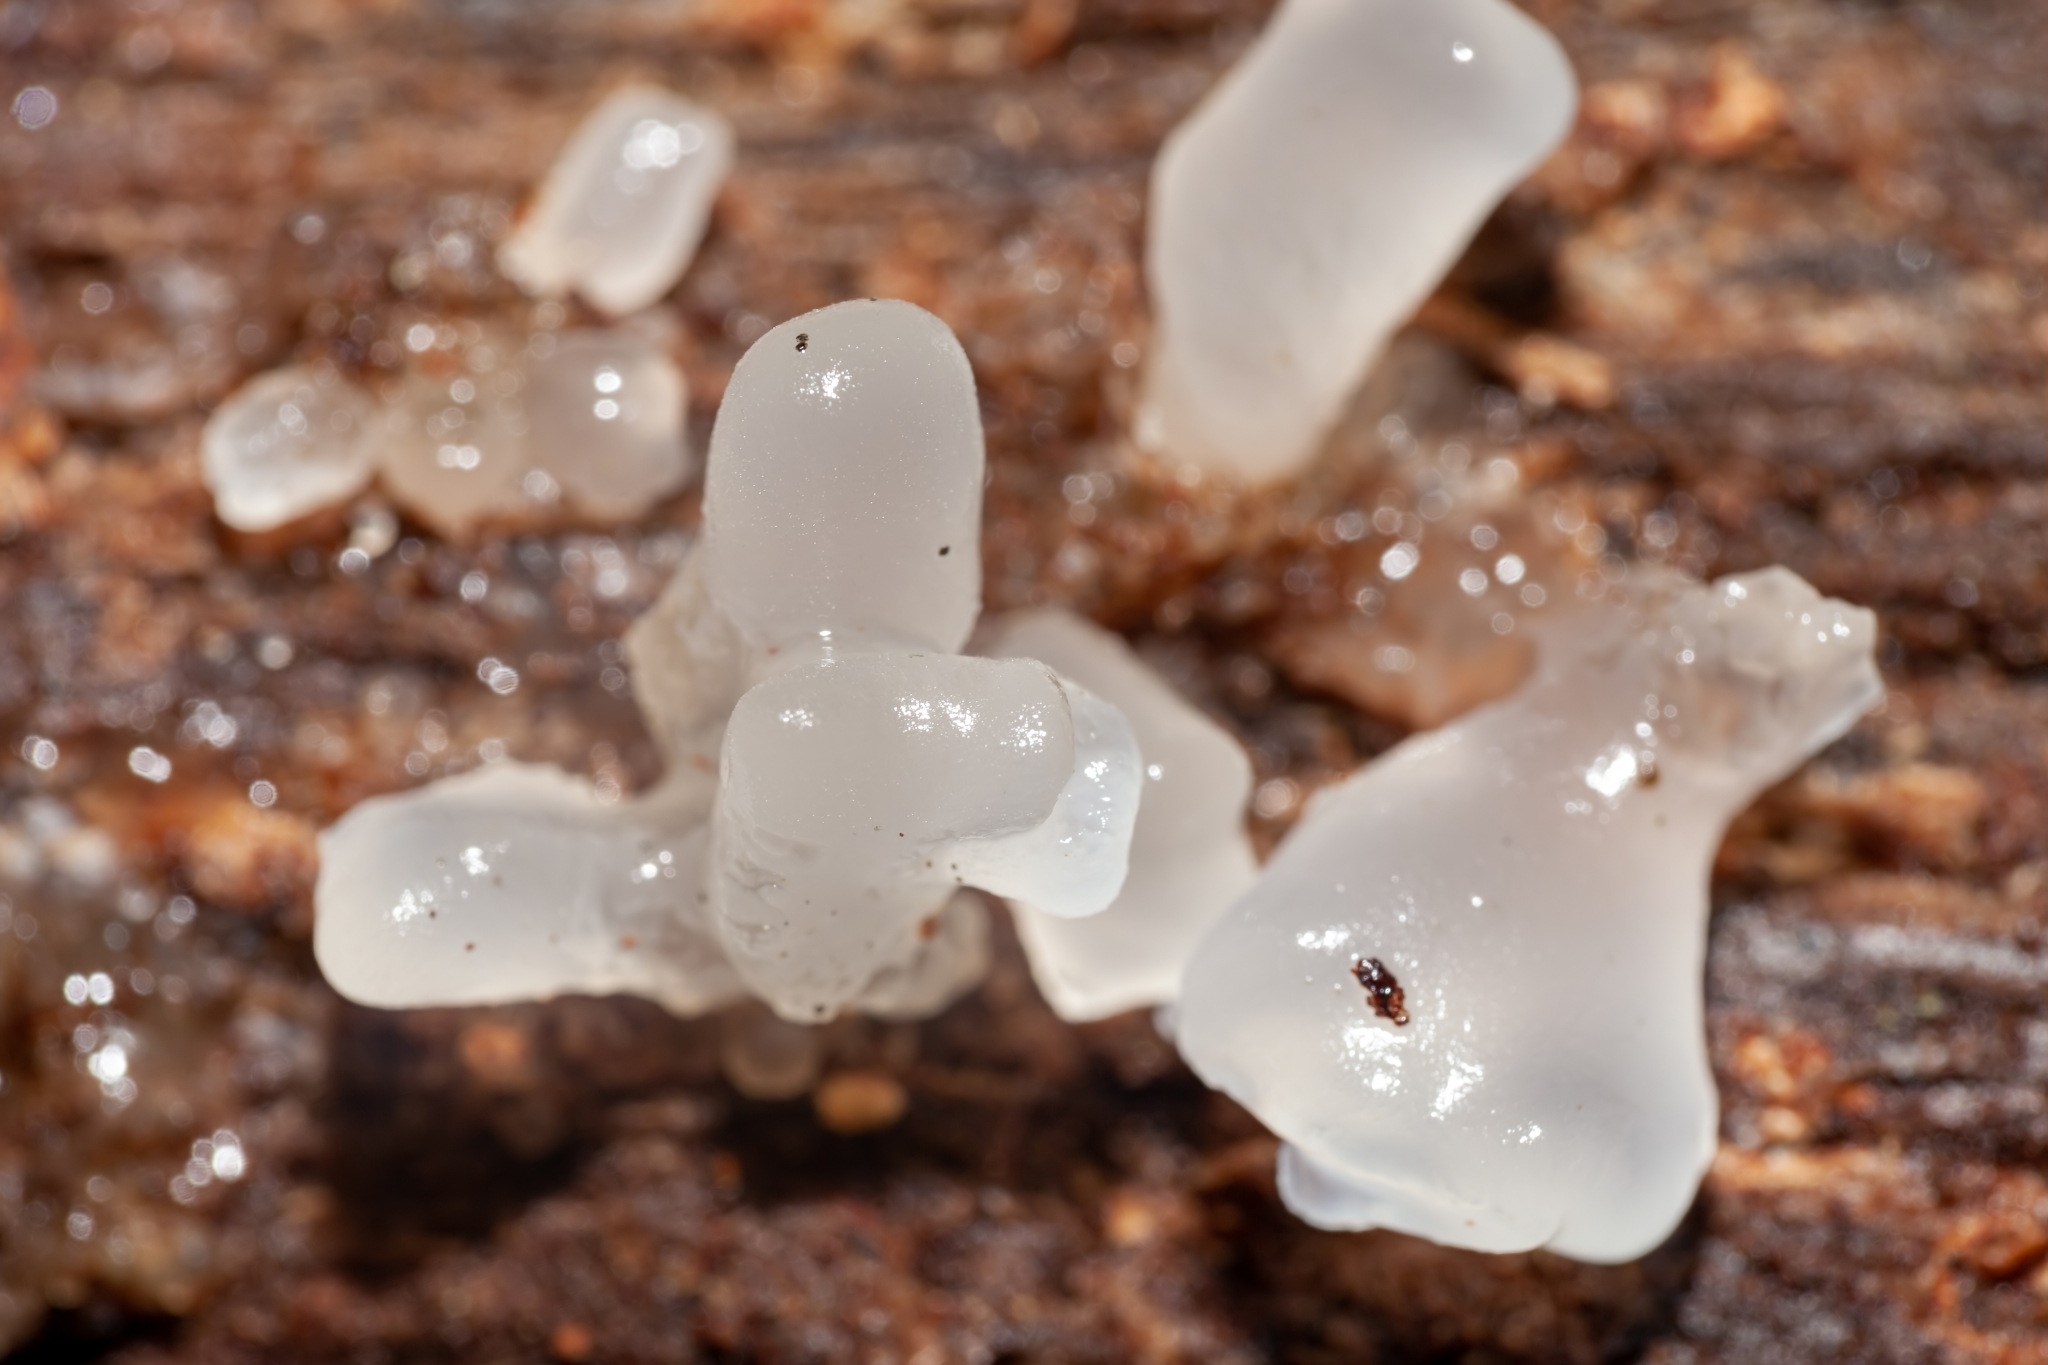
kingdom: Fungi
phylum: Basidiomycota
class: Tremellomycetes
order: Tremellales
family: Tremellaceae
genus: Tremella
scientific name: Tremella fuciformis
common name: Snow fungus
